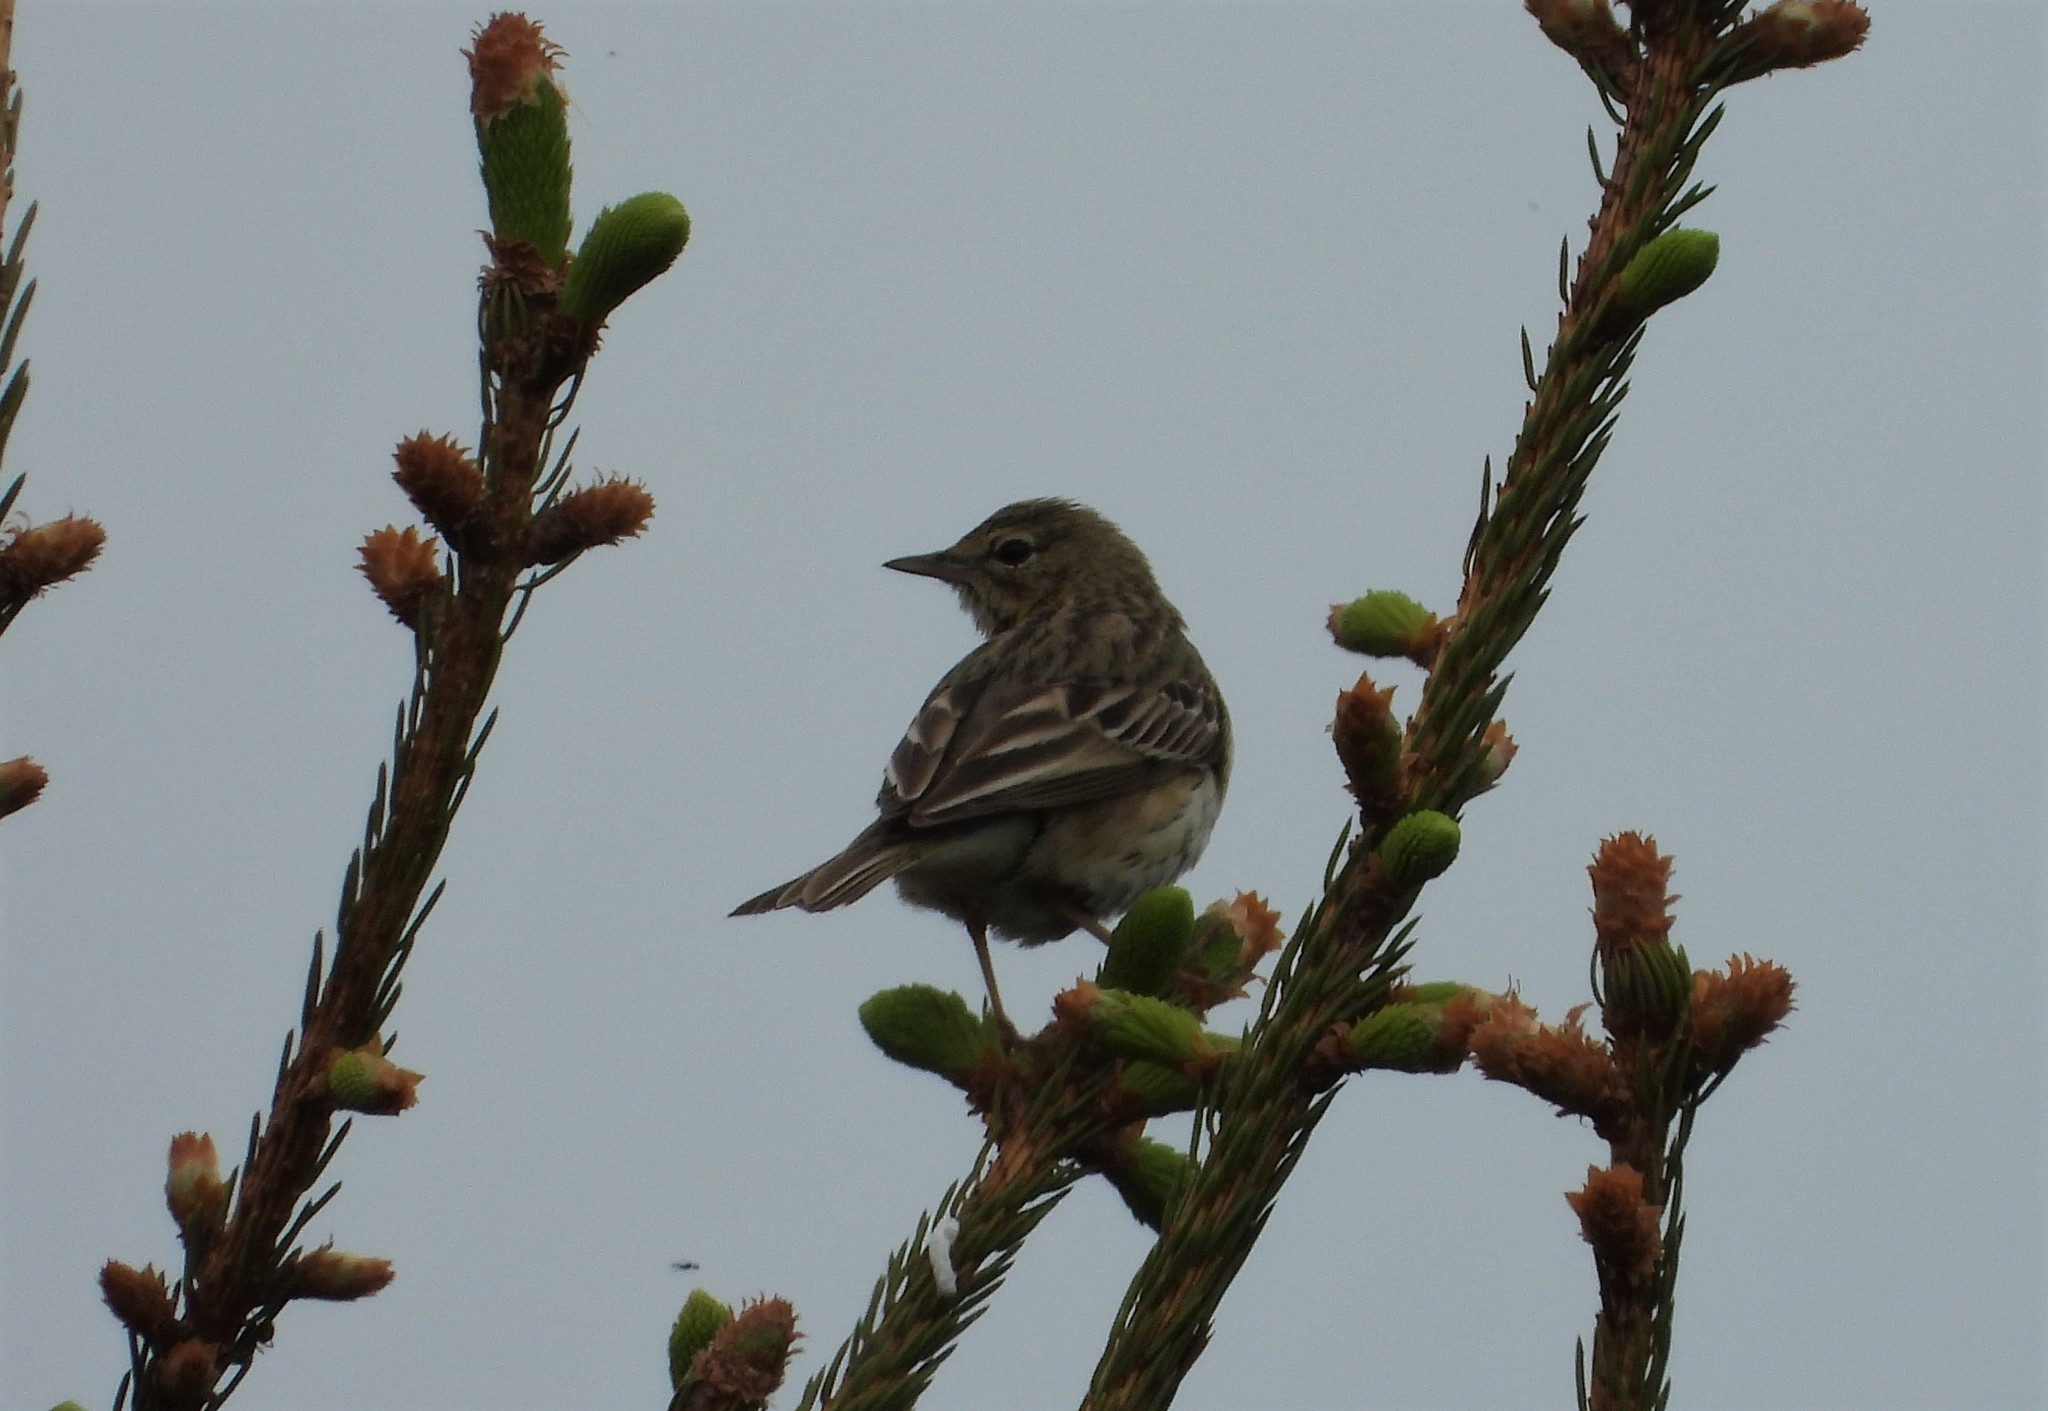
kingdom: Animalia
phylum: Chordata
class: Aves
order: Passeriformes
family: Motacillidae
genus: Anthus
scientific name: Anthus trivialis
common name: Tree pipit
